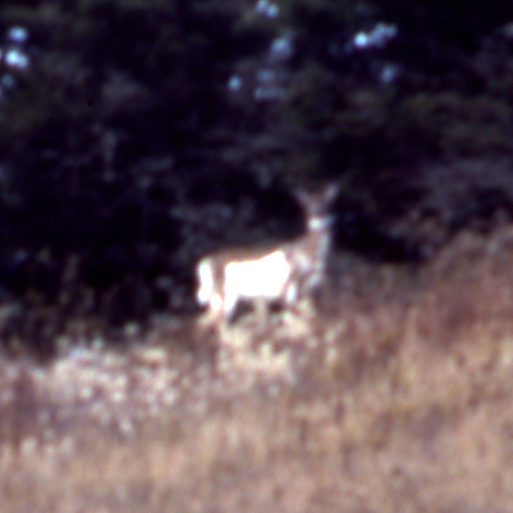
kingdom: Animalia
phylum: Chordata
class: Mammalia
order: Artiodactyla
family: Cervidae
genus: Odocoileus
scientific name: Odocoileus virginianus
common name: White-tailed deer
